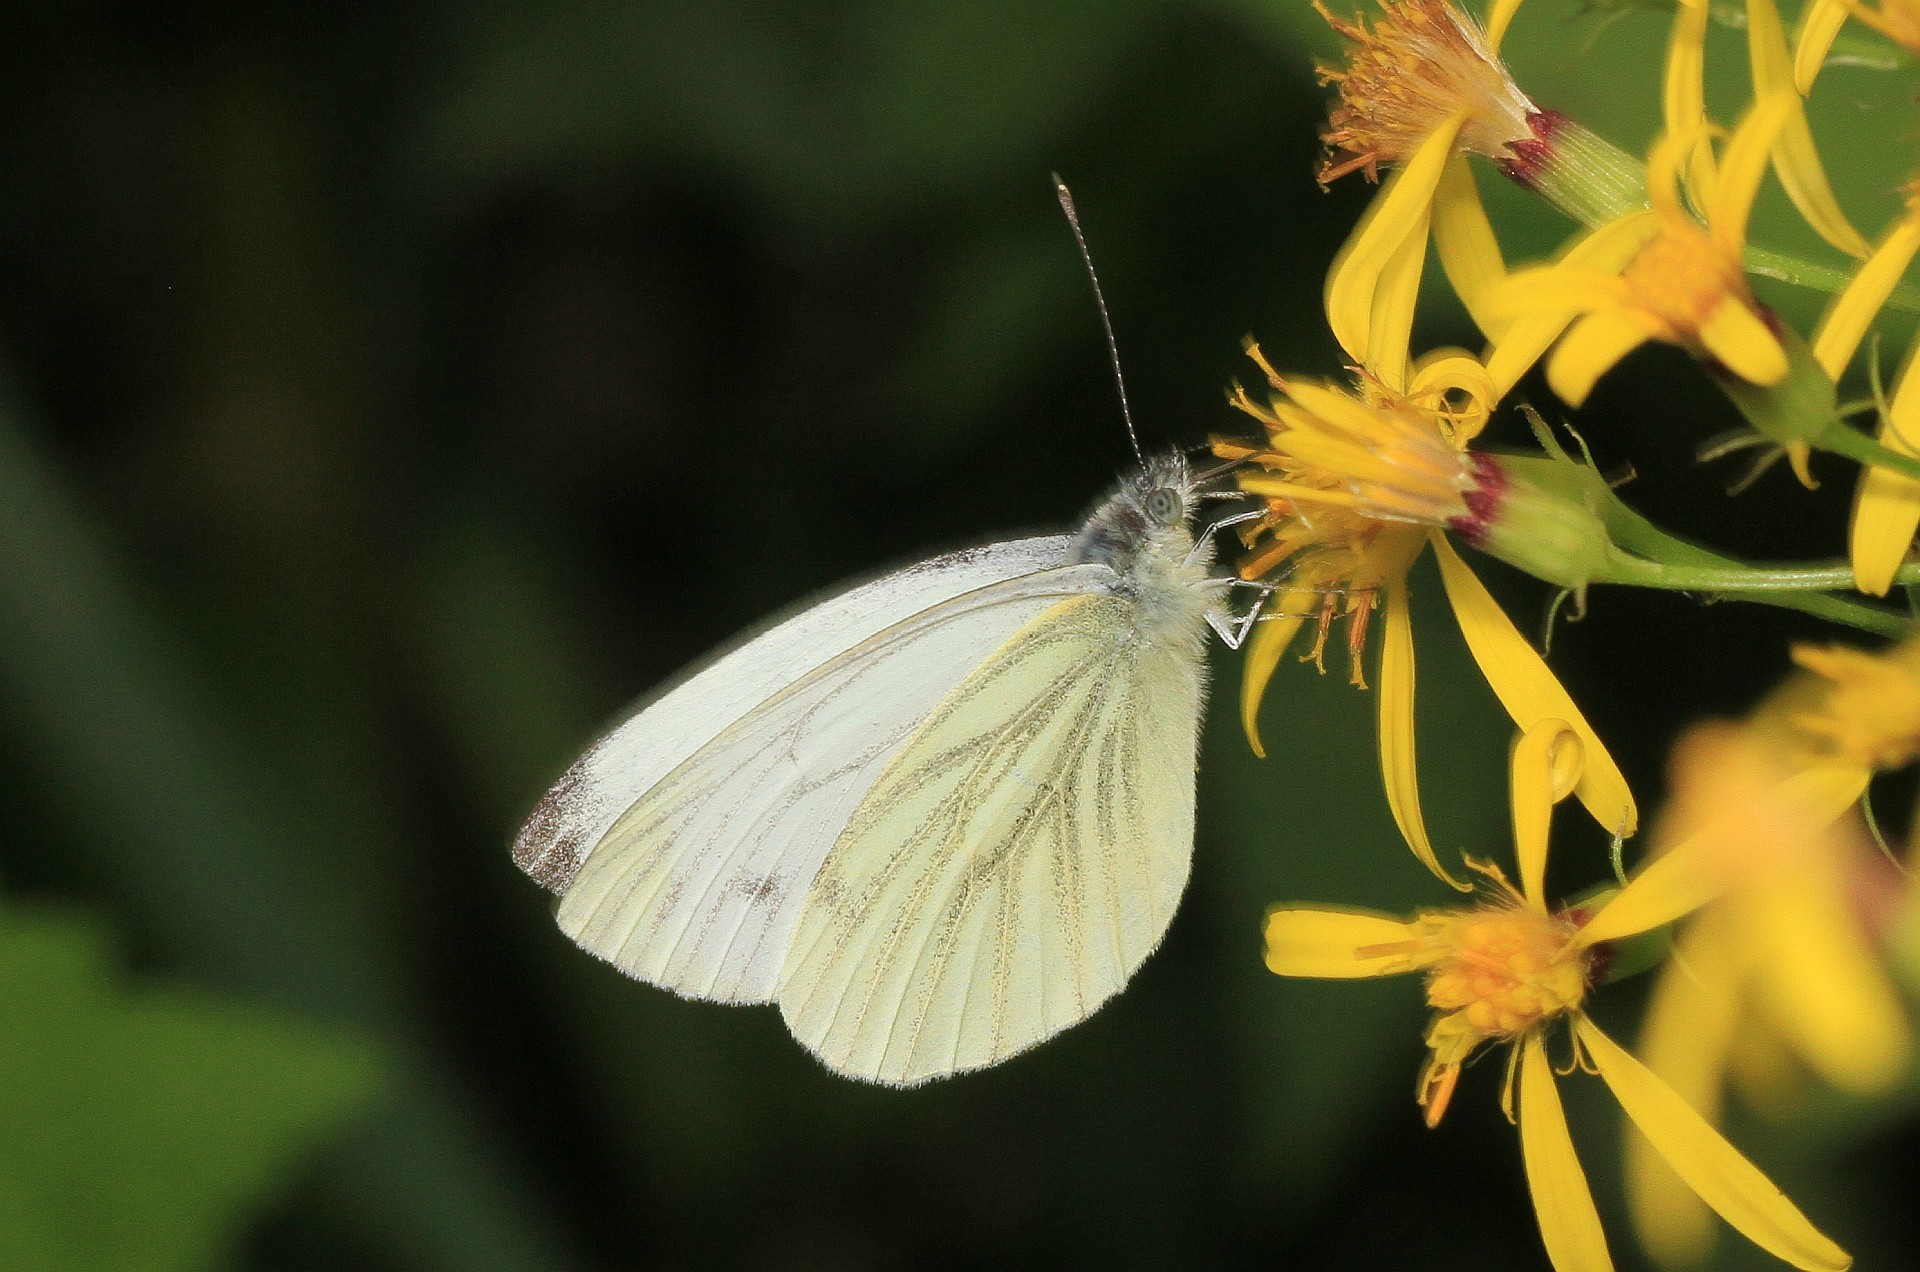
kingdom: Animalia
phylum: Arthropoda
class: Insecta
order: Lepidoptera
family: Pieridae
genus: Pieris
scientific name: Pieris napi
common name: Green-veined white
